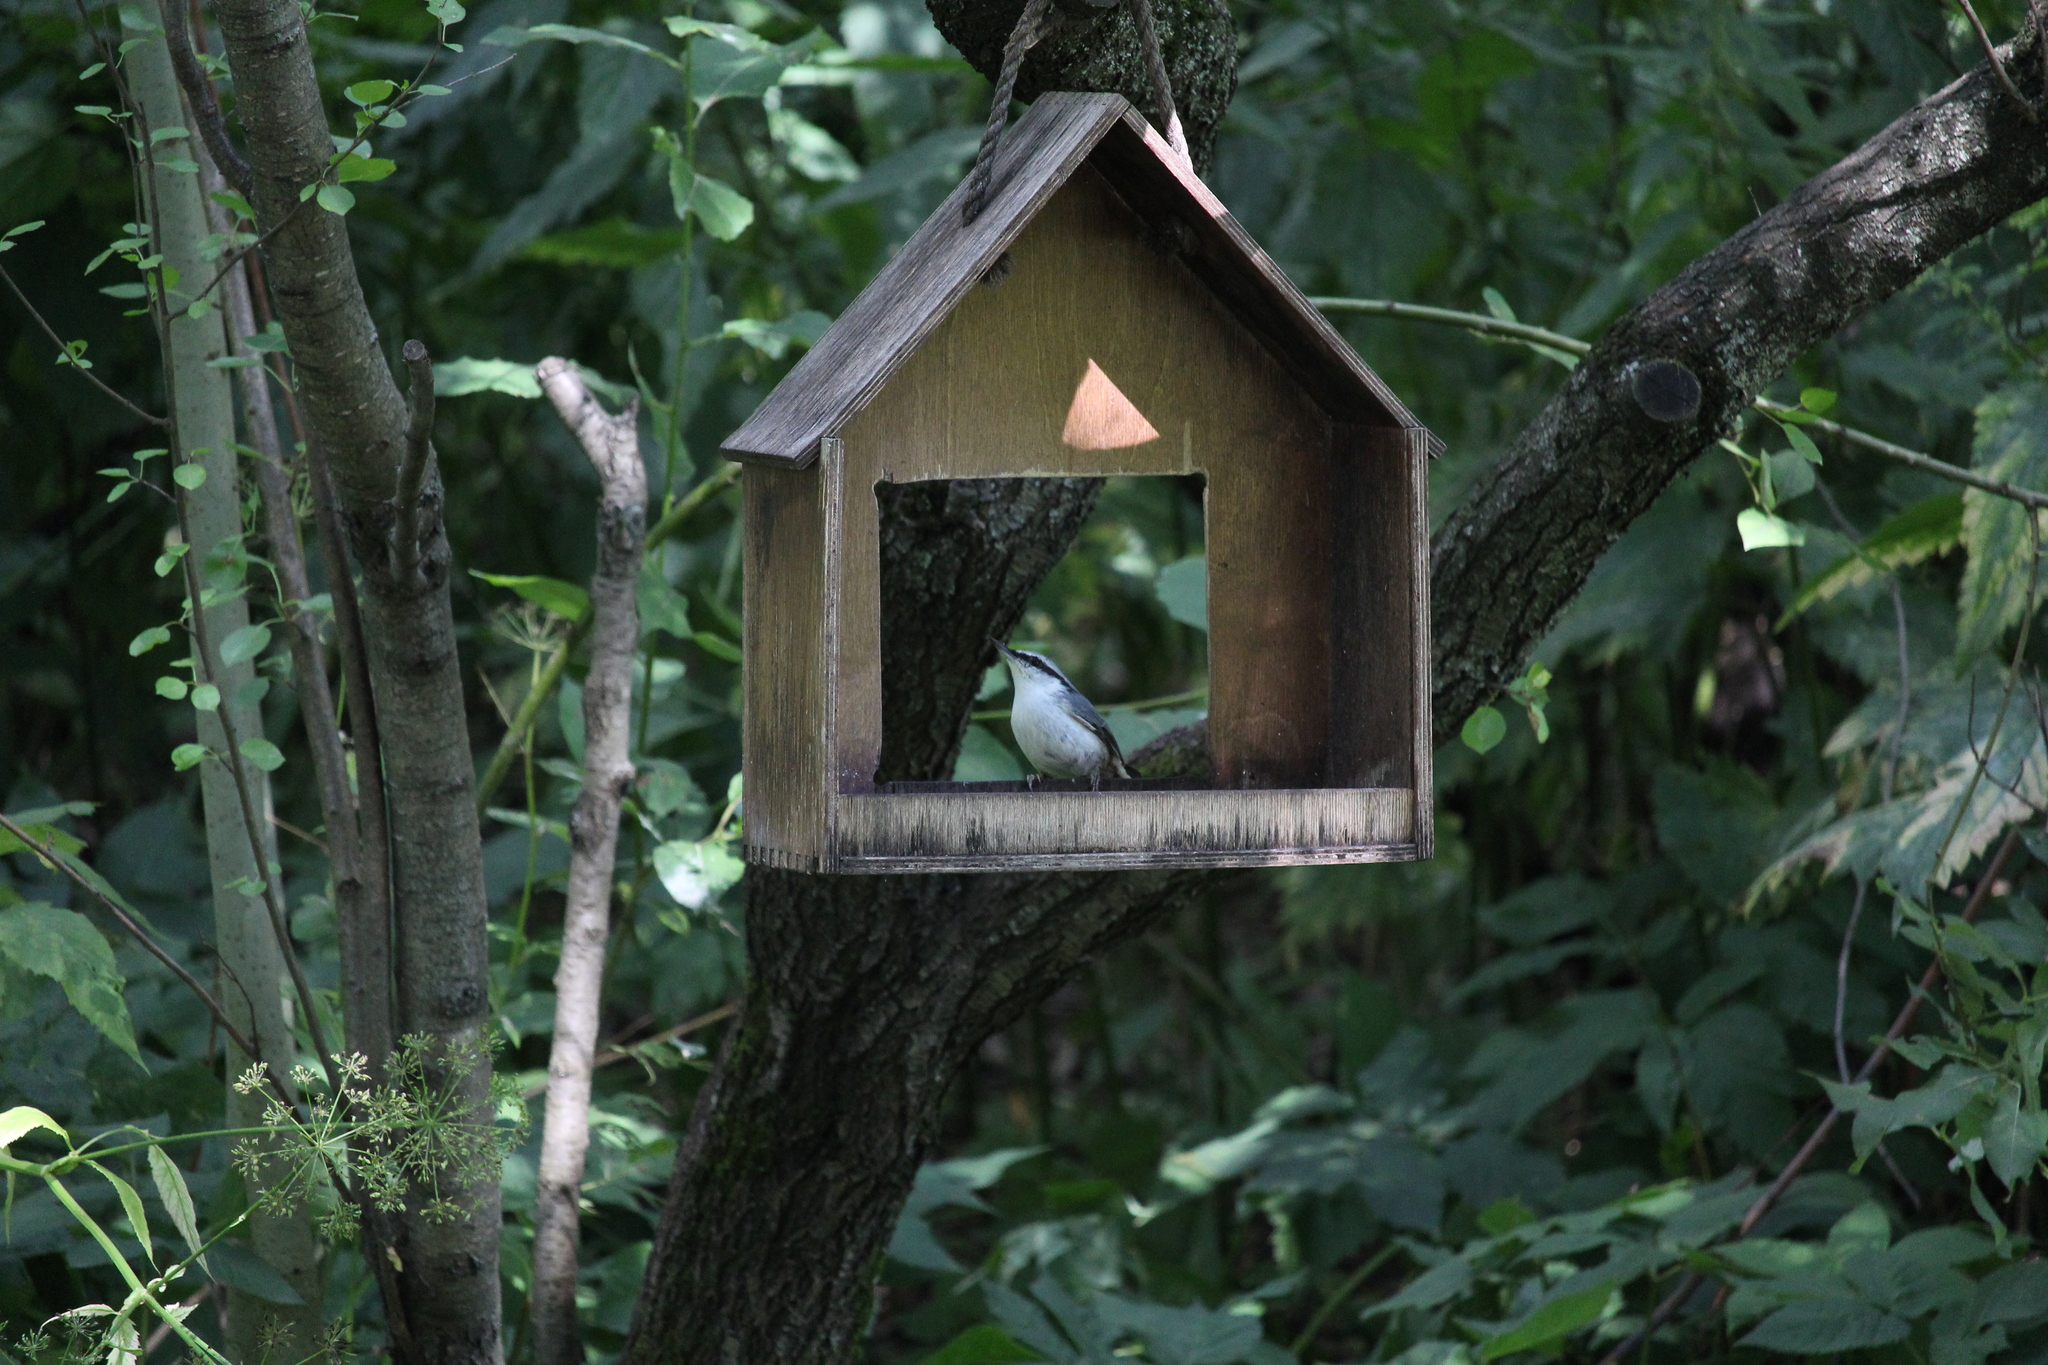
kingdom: Animalia
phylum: Chordata
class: Aves
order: Passeriformes
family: Sittidae
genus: Sitta
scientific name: Sitta europaea
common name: Eurasian nuthatch
